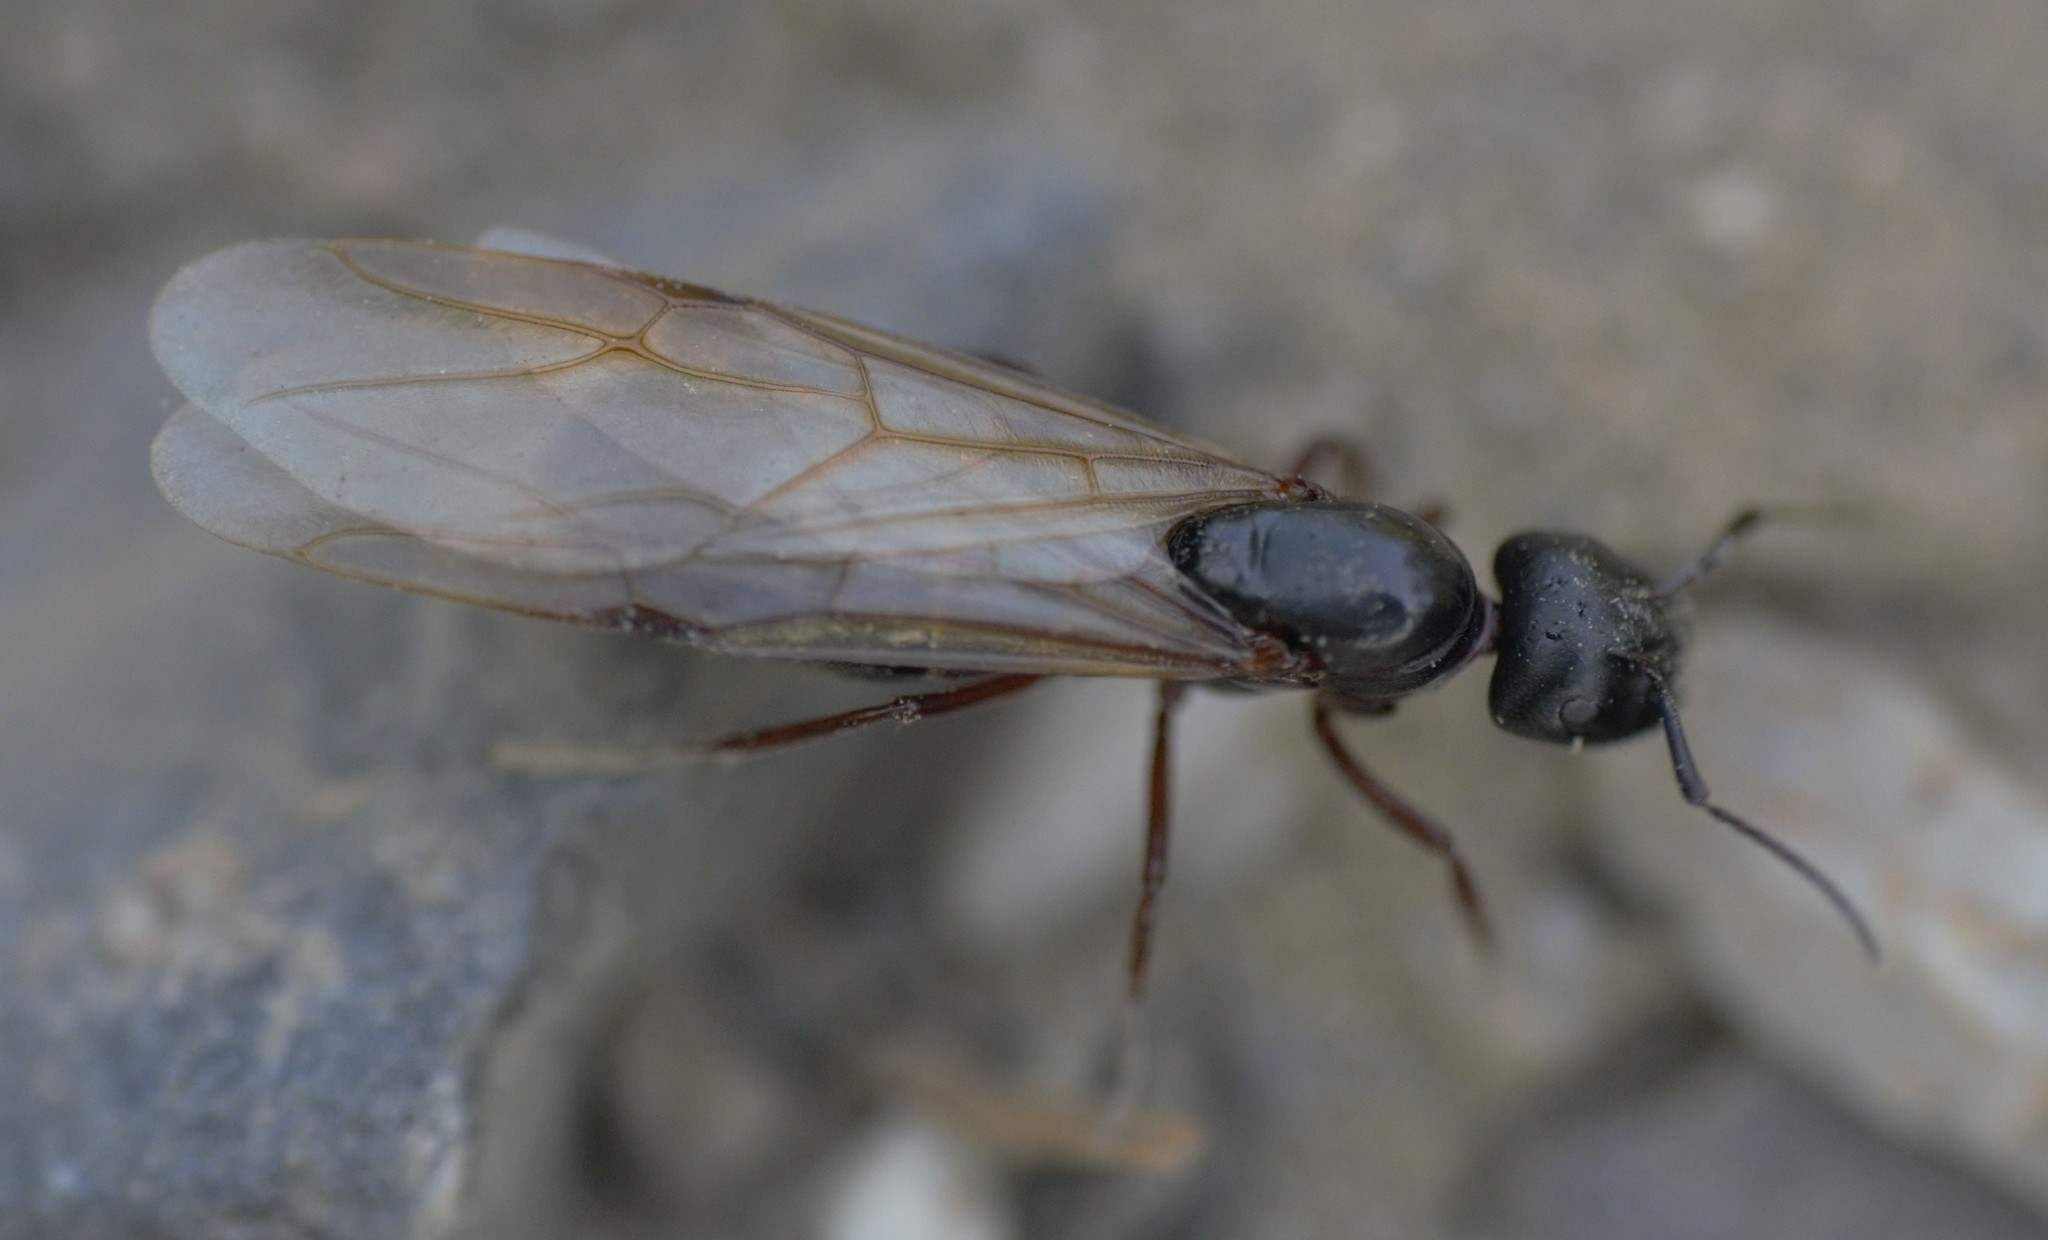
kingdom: Animalia
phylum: Arthropoda
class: Insecta
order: Hymenoptera
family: Formicidae
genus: Camponotus
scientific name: Camponotus herculeanus
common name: Hercules ant
